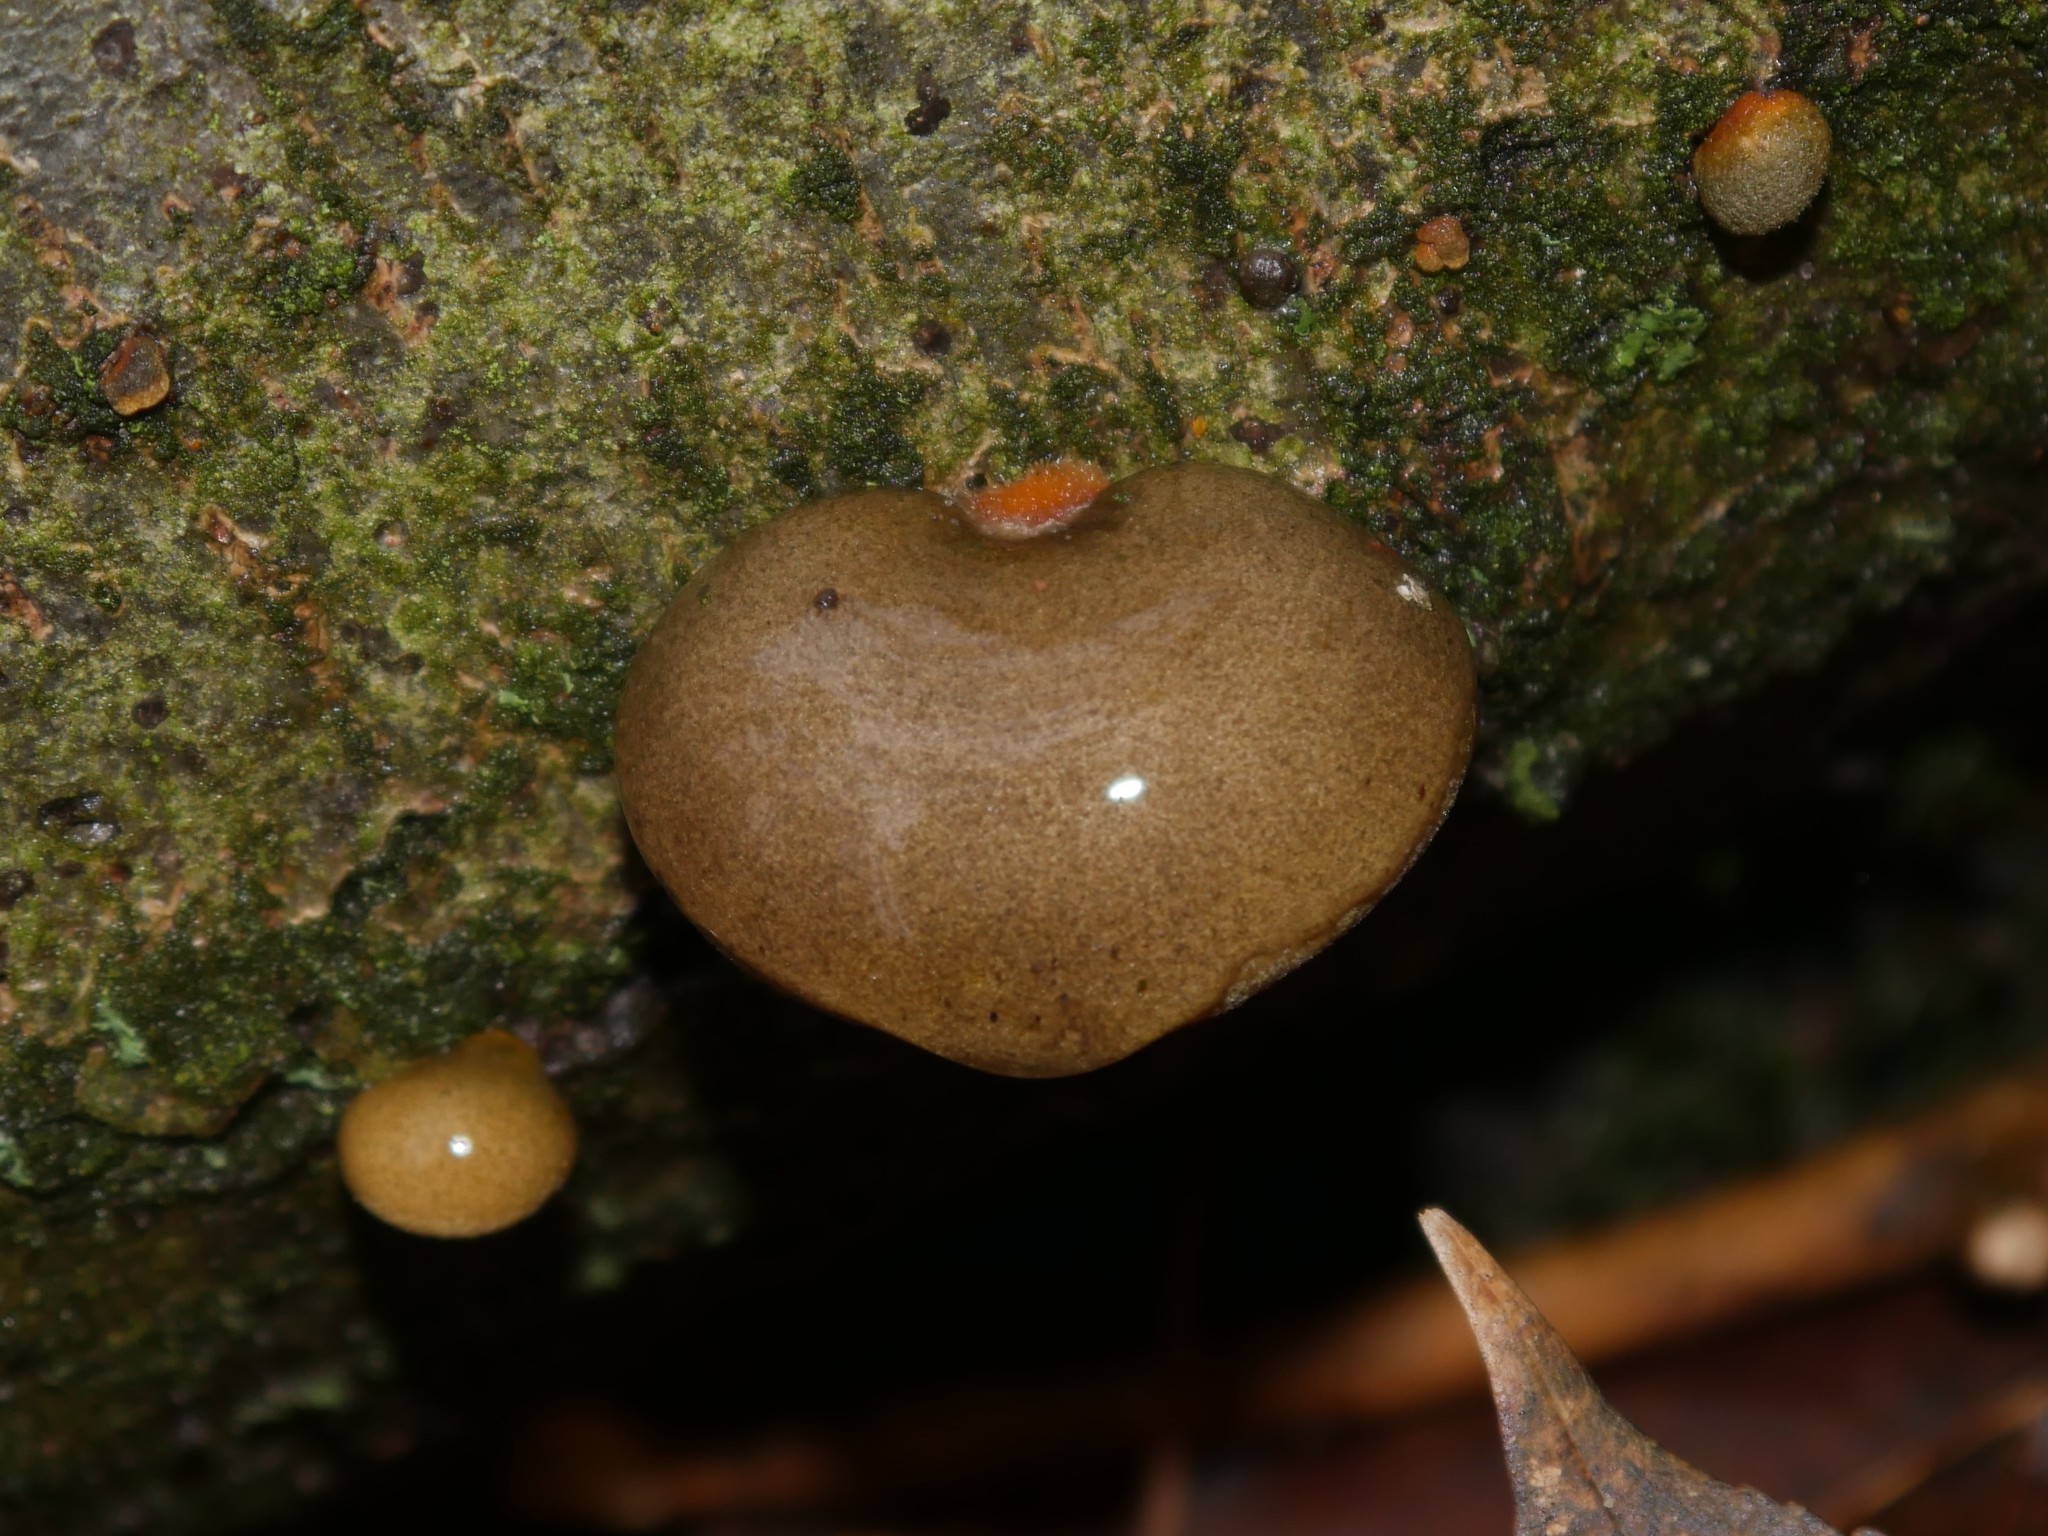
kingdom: Fungi
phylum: Basidiomycota
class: Agaricomycetes
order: Agaricales
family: Sarcomyxaceae
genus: Sarcomyxa
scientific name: Sarcomyxa serotina
